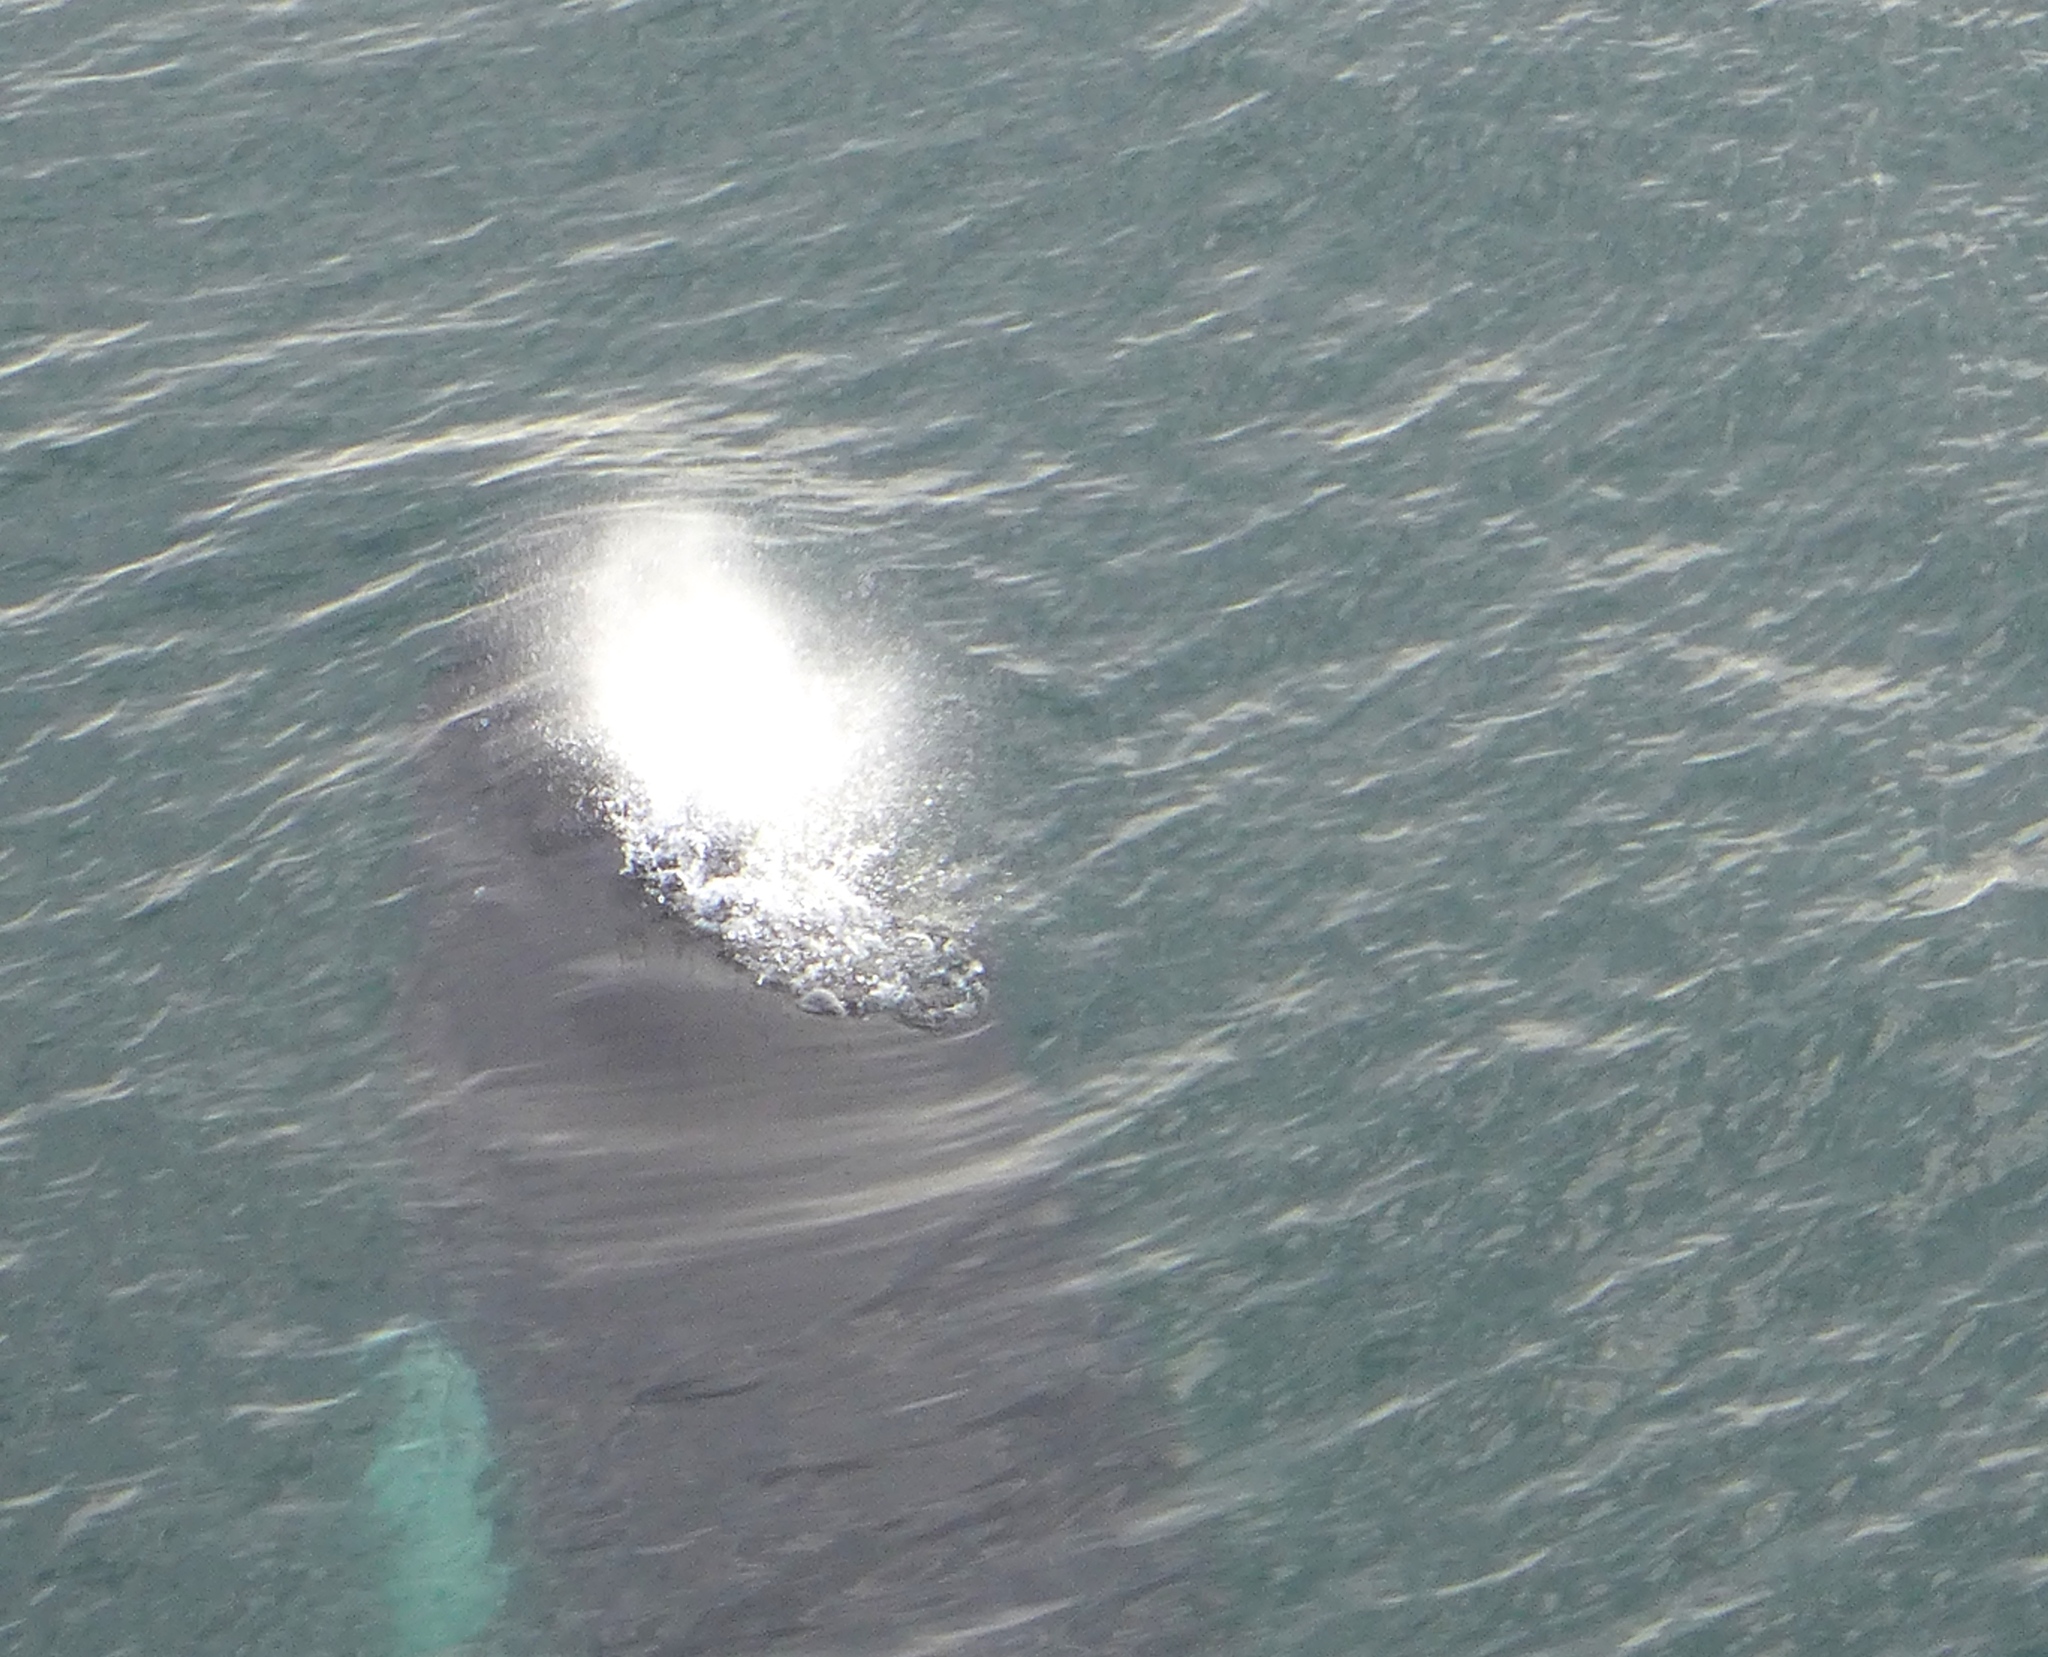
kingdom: Animalia
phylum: Chordata
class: Mammalia
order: Cetacea
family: Balaenopteridae
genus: Megaptera
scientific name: Megaptera novaeangliae
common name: Humpback whale
